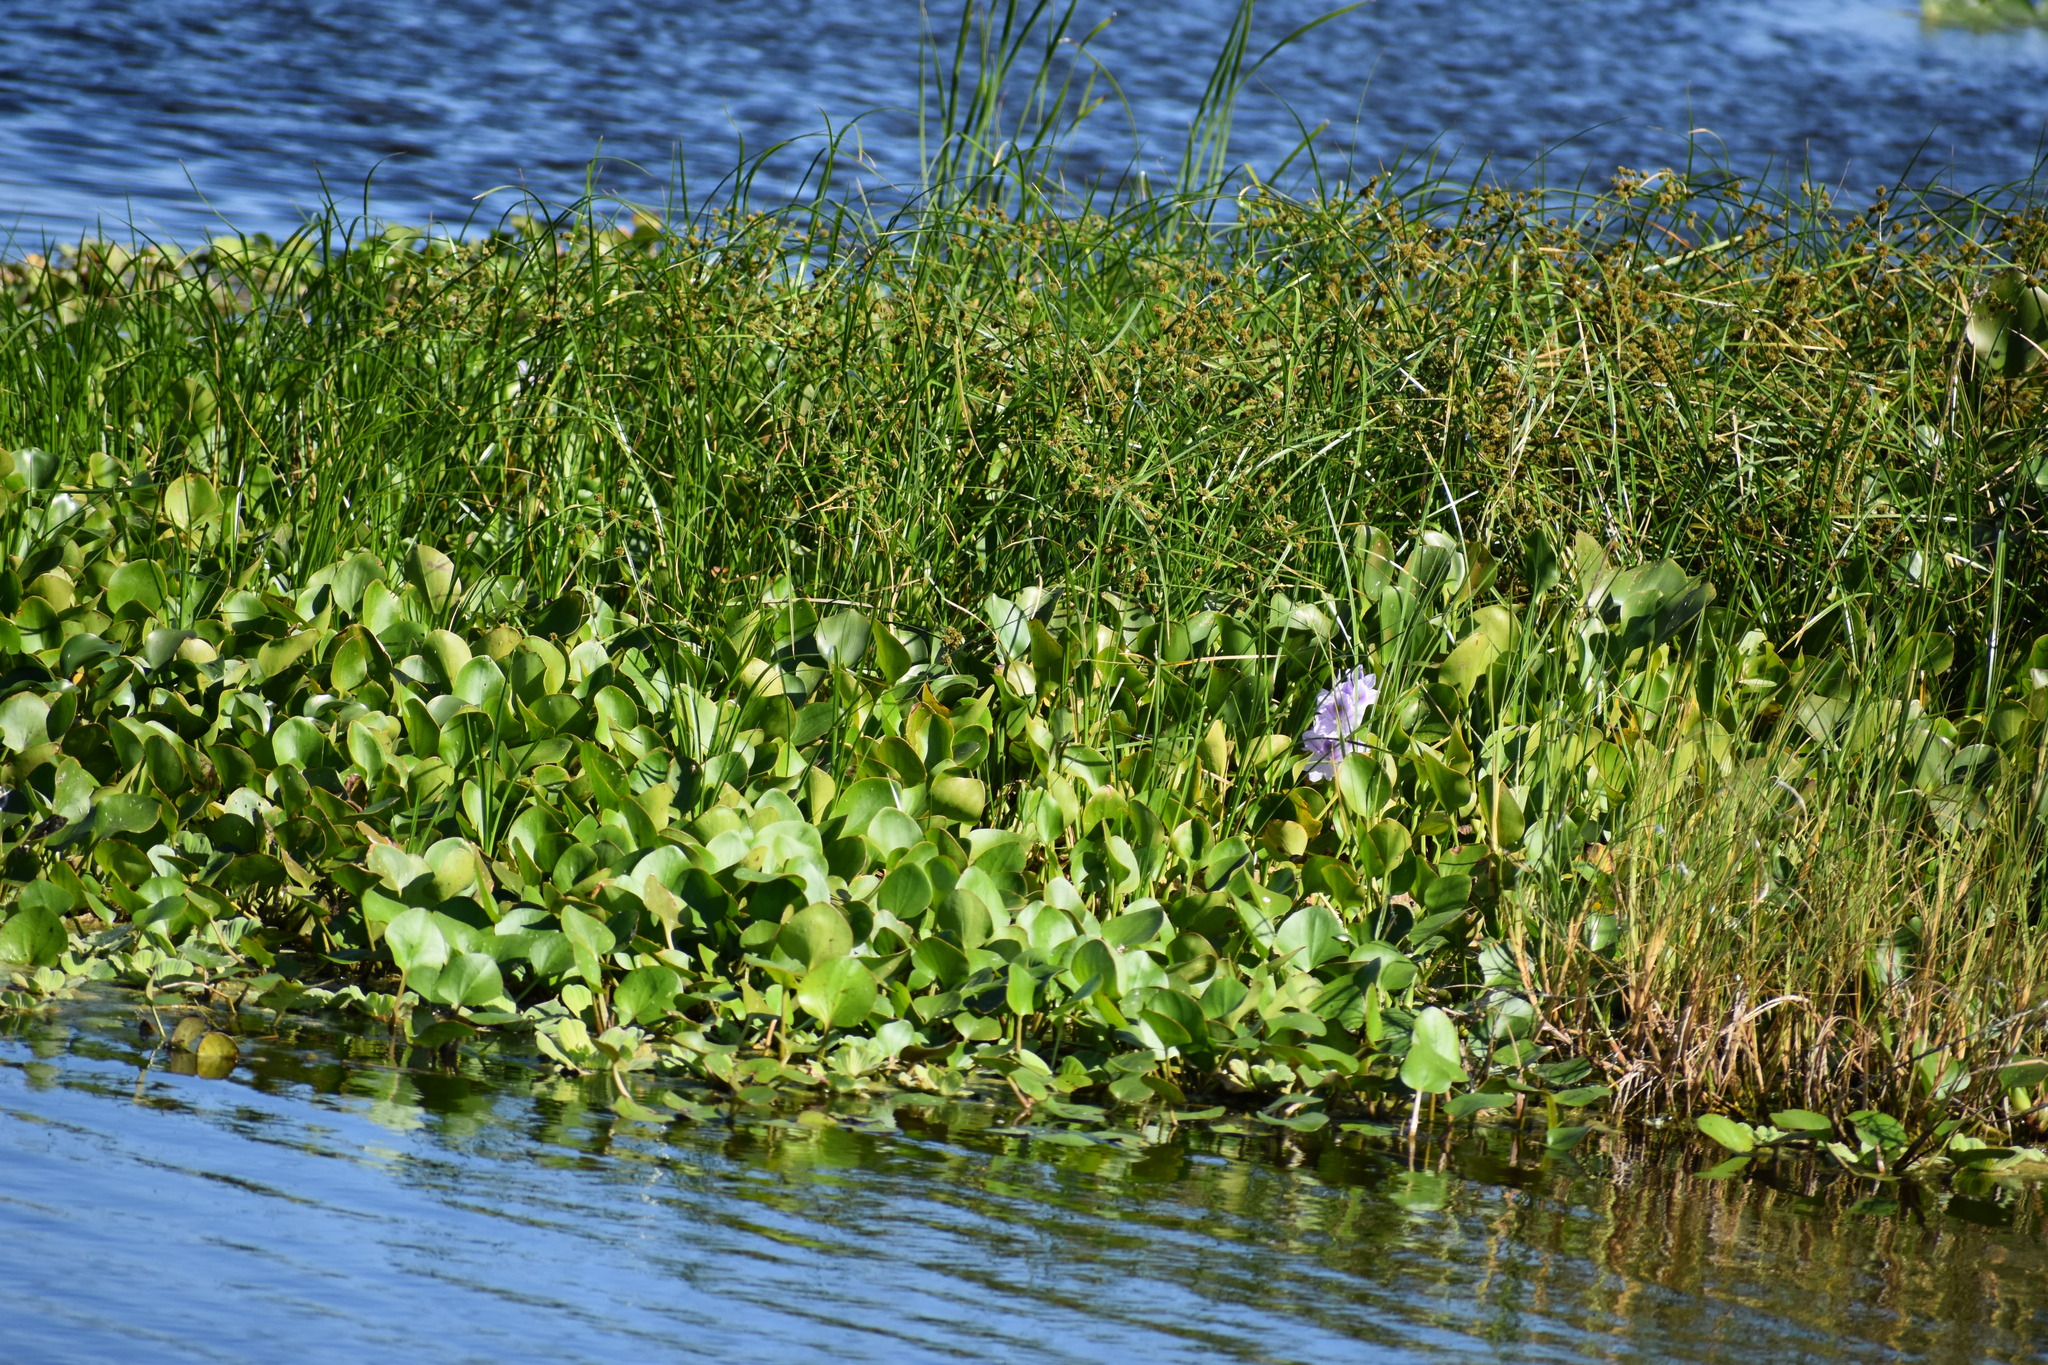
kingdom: Plantae
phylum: Tracheophyta
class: Liliopsida
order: Commelinales
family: Pontederiaceae
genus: Pontederia
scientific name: Pontederia crassipes
